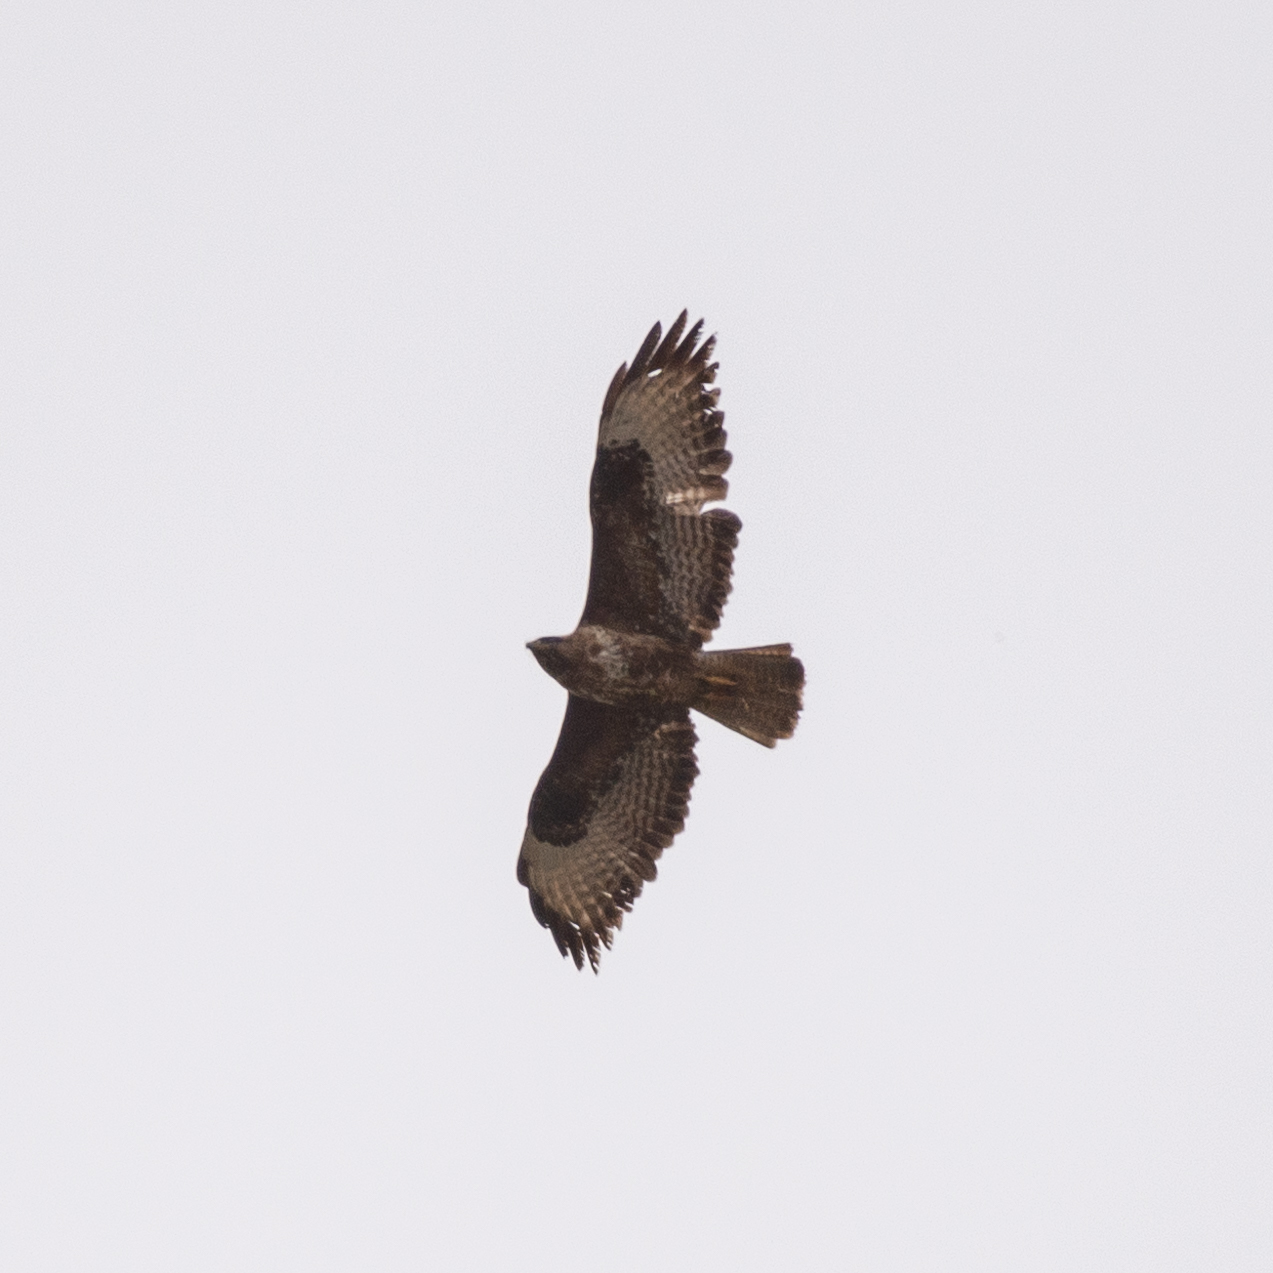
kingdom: Animalia
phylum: Chordata
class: Aves
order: Accipitriformes
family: Accipitridae
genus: Buteo
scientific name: Buteo buteo
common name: Common buzzard
